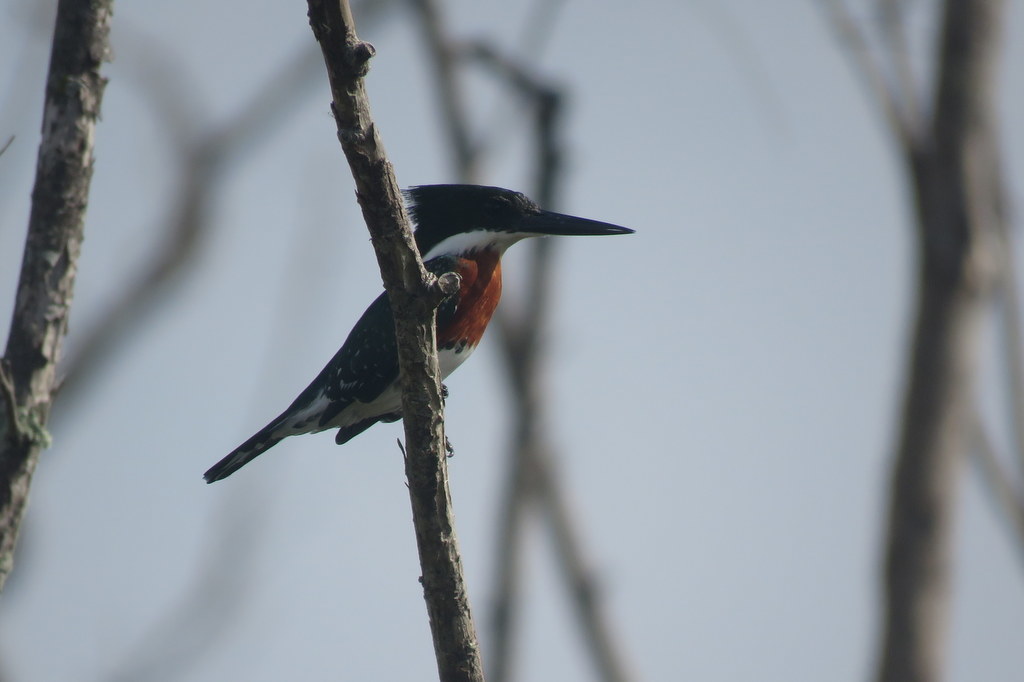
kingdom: Animalia
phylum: Chordata
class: Aves
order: Coraciiformes
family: Alcedinidae
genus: Chloroceryle
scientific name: Chloroceryle americana
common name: Green kingfisher
